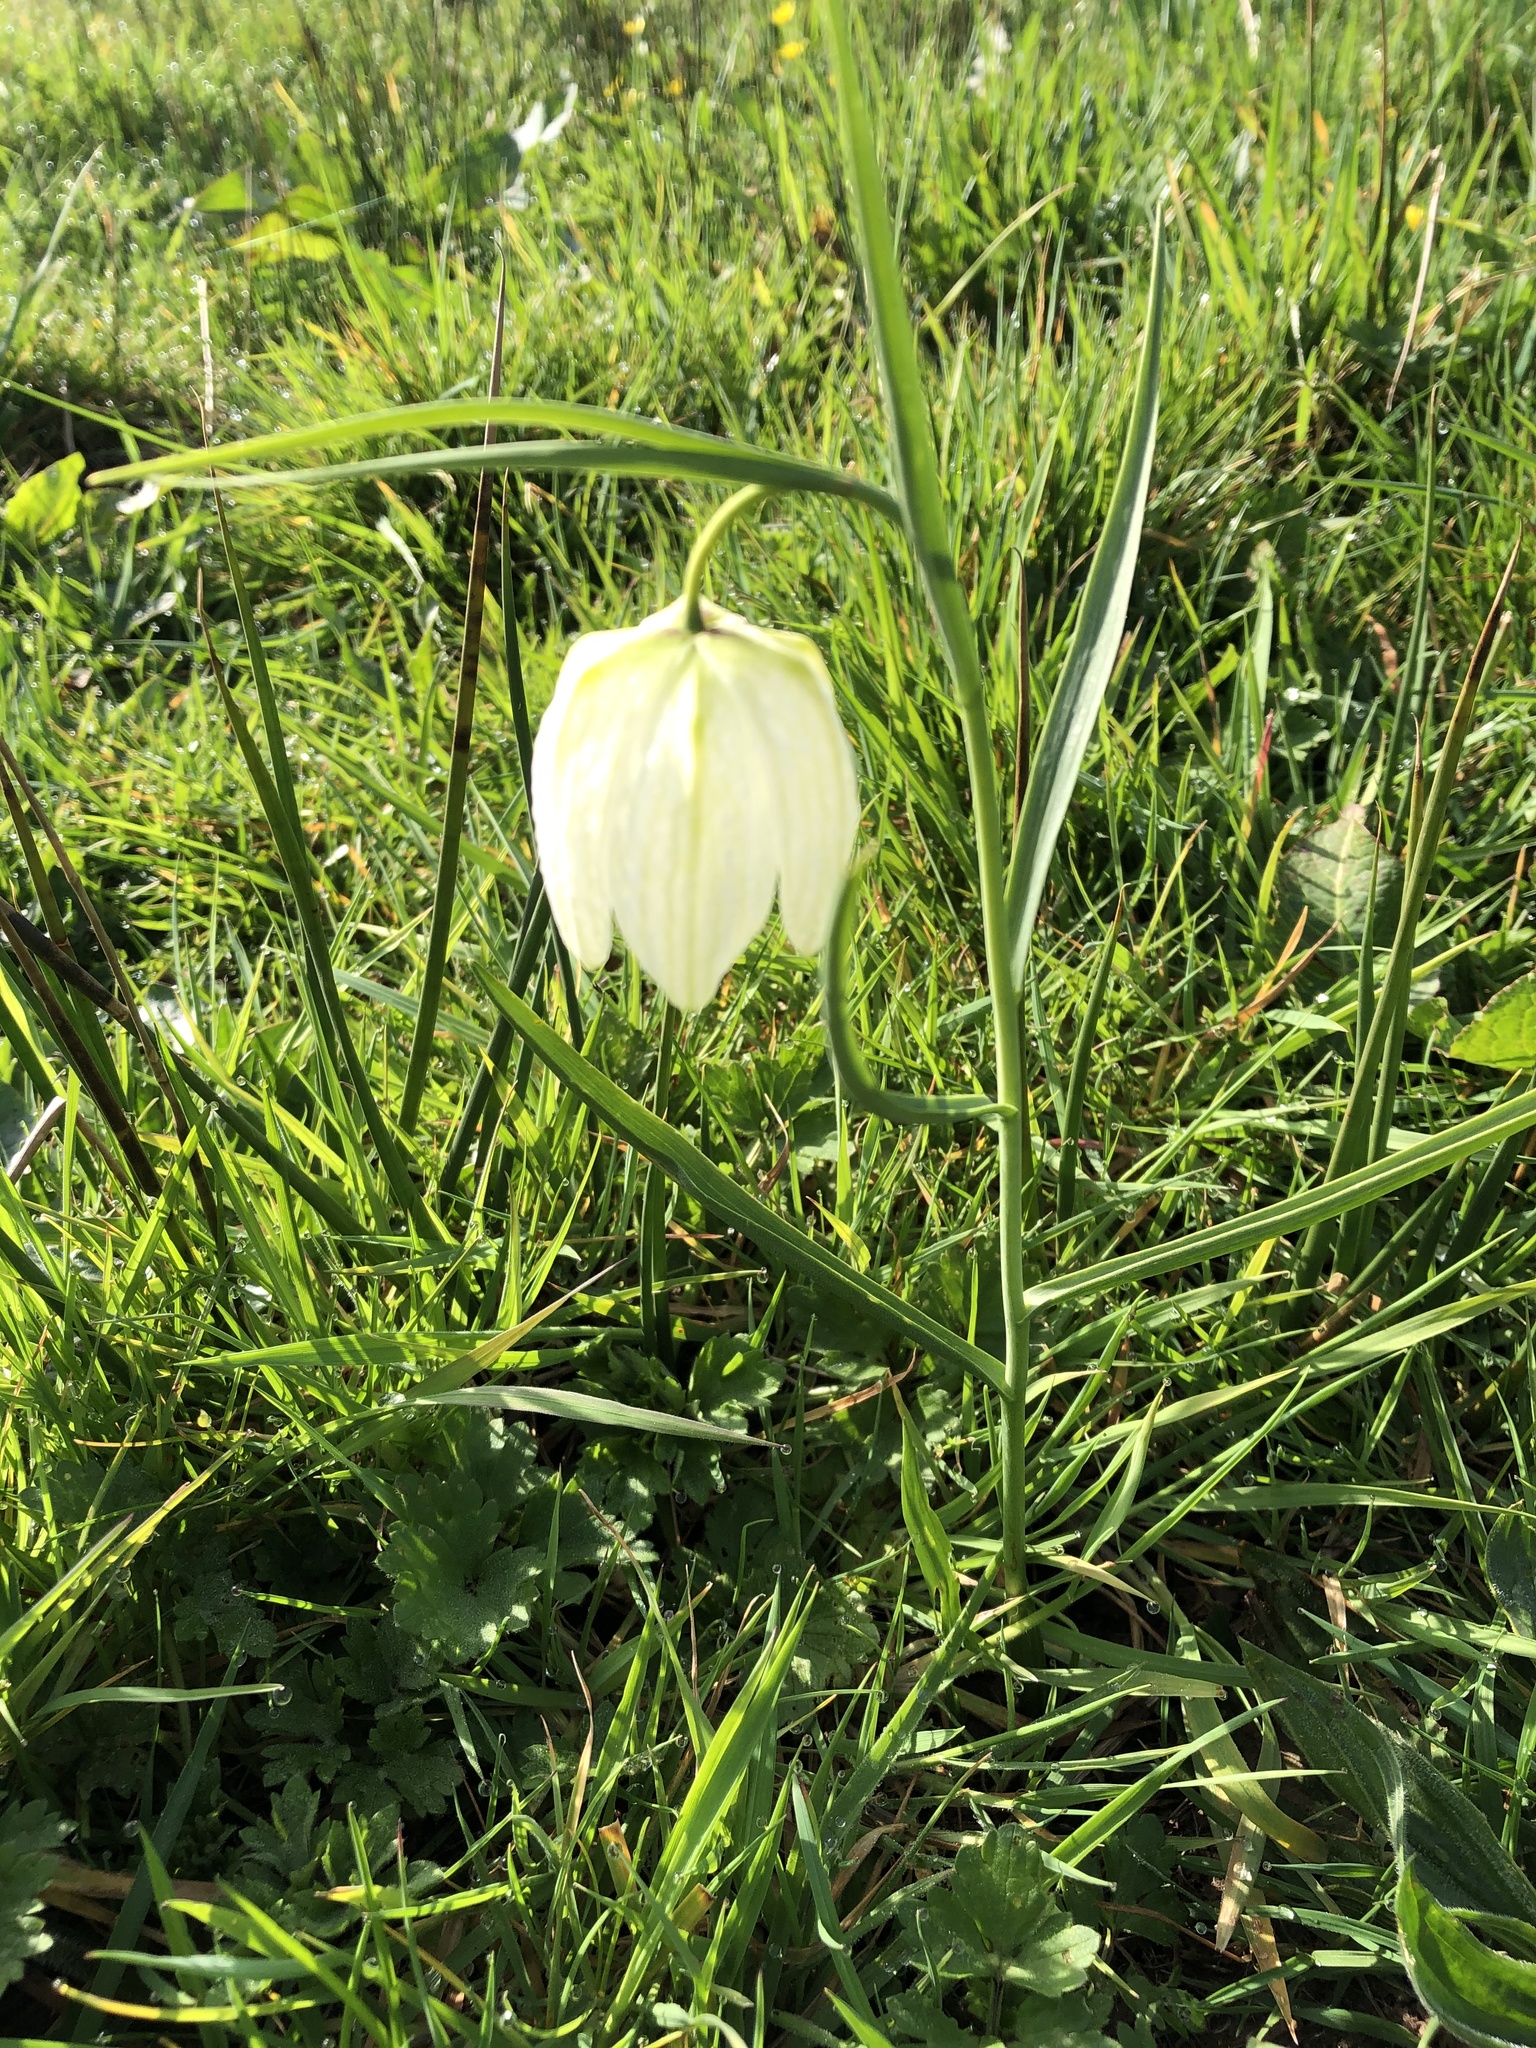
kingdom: Plantae
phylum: Tracheophyta
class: Liliopsida
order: Liliales
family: Liliaceae
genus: Fritillaria
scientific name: Fritillaria meleagris
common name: Fritillary
